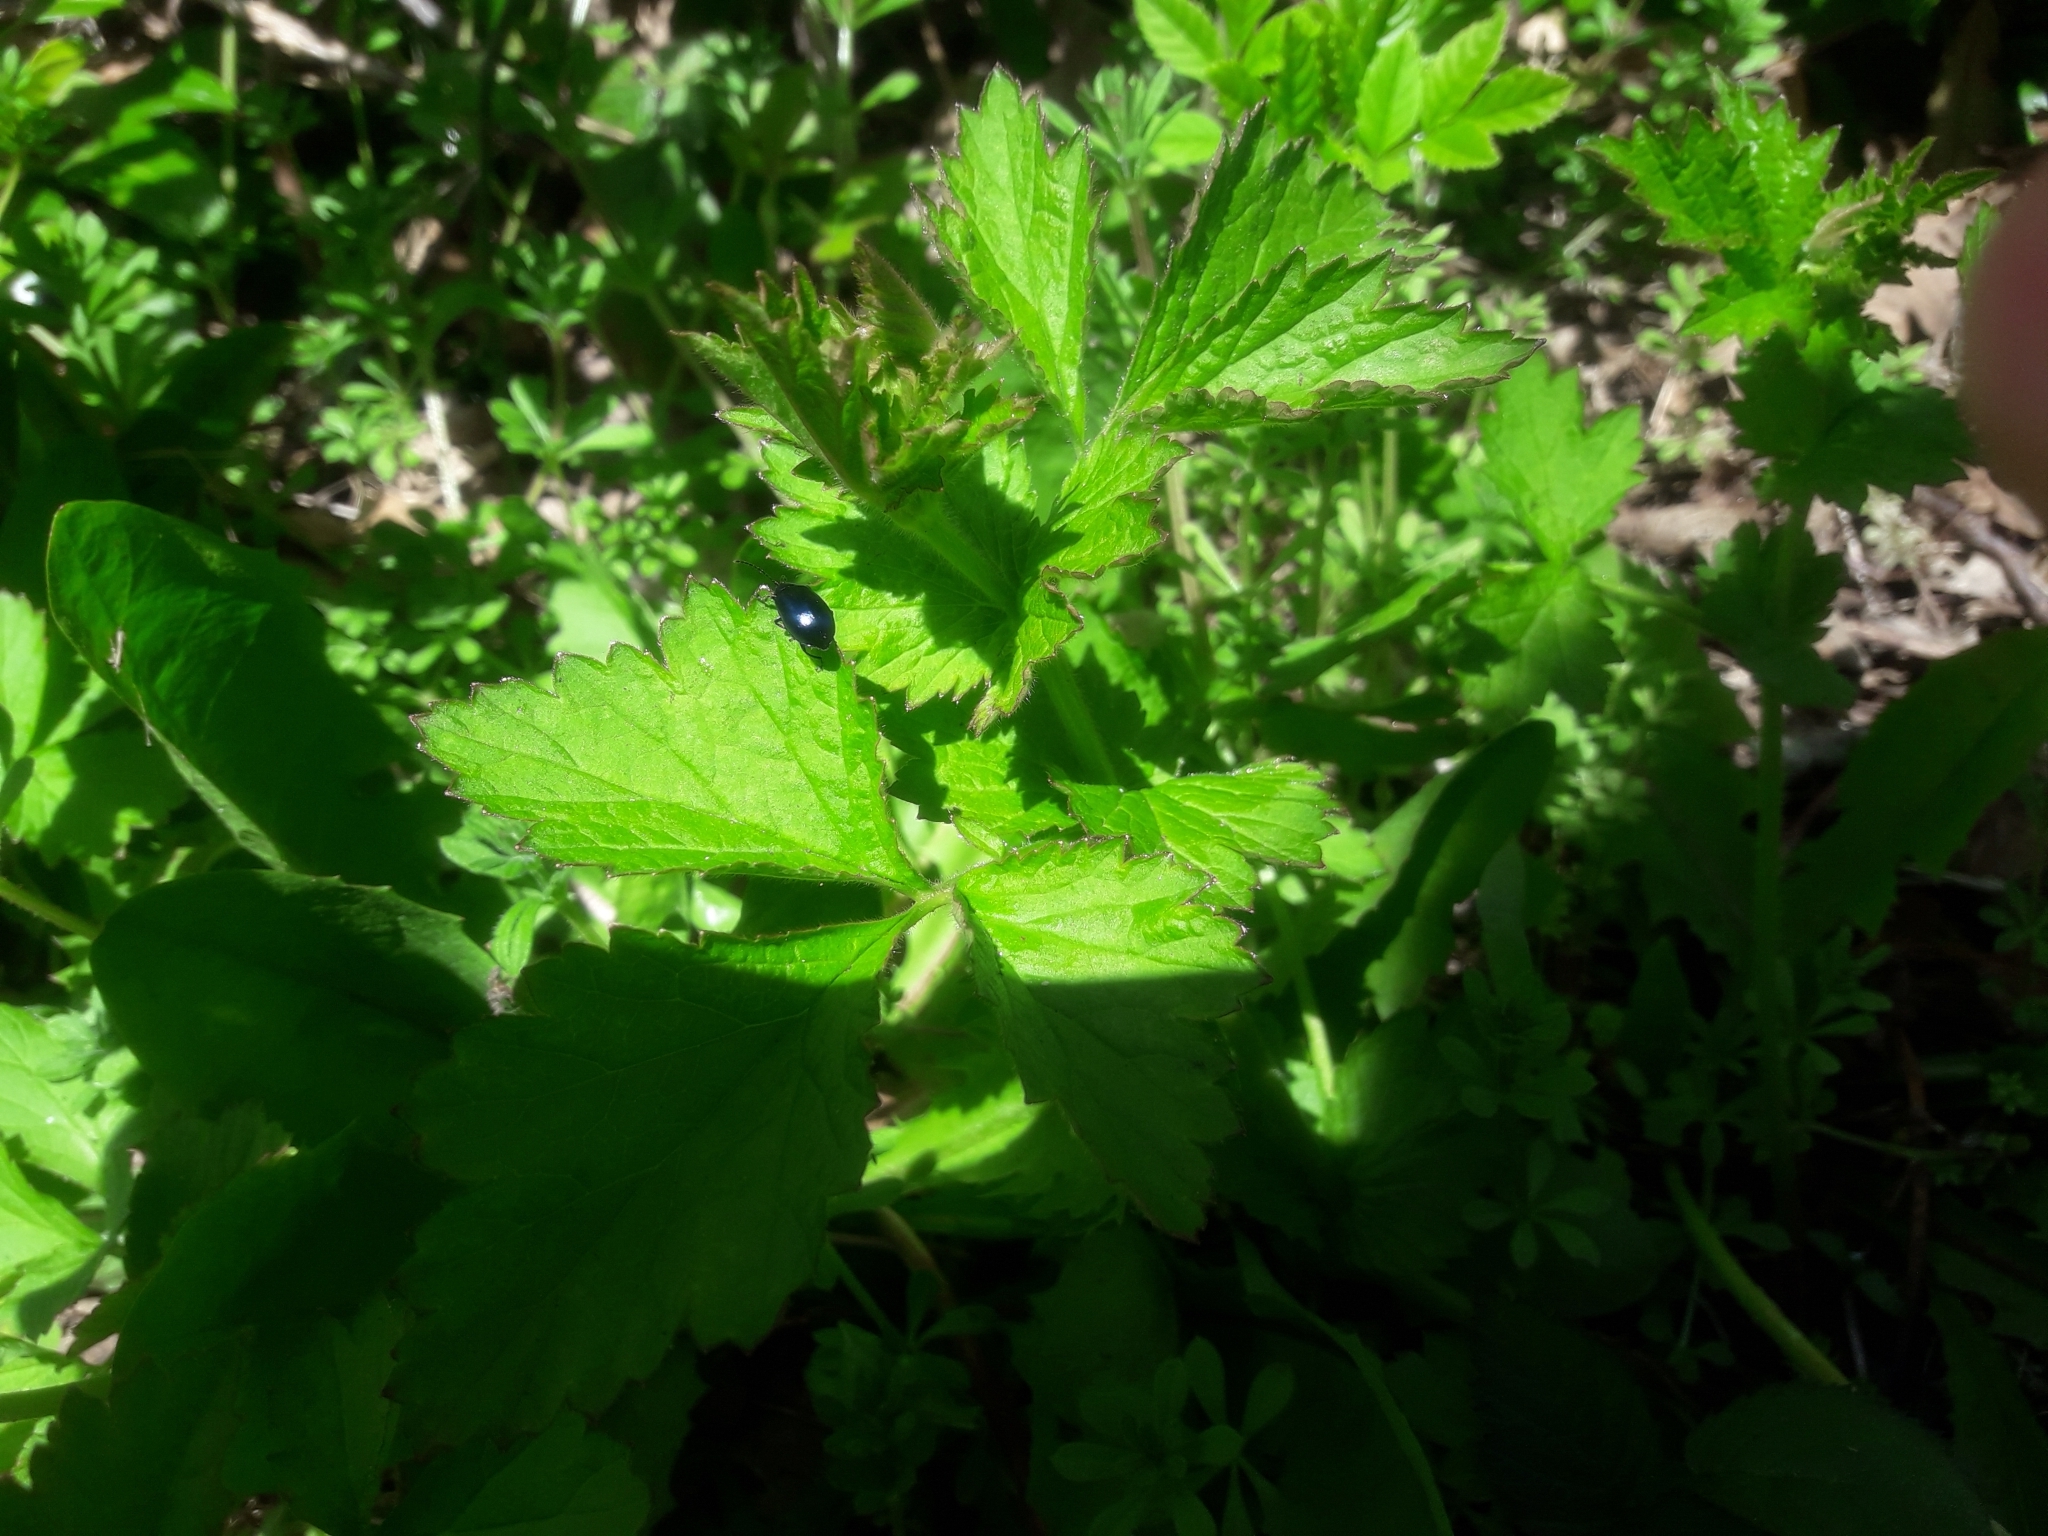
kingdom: Animalia
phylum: Arthropoda
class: Insecta
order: Coleoptera
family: Chrysomelidae
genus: Agelastica
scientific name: Agelastica alni
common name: Alder leaf beetle
